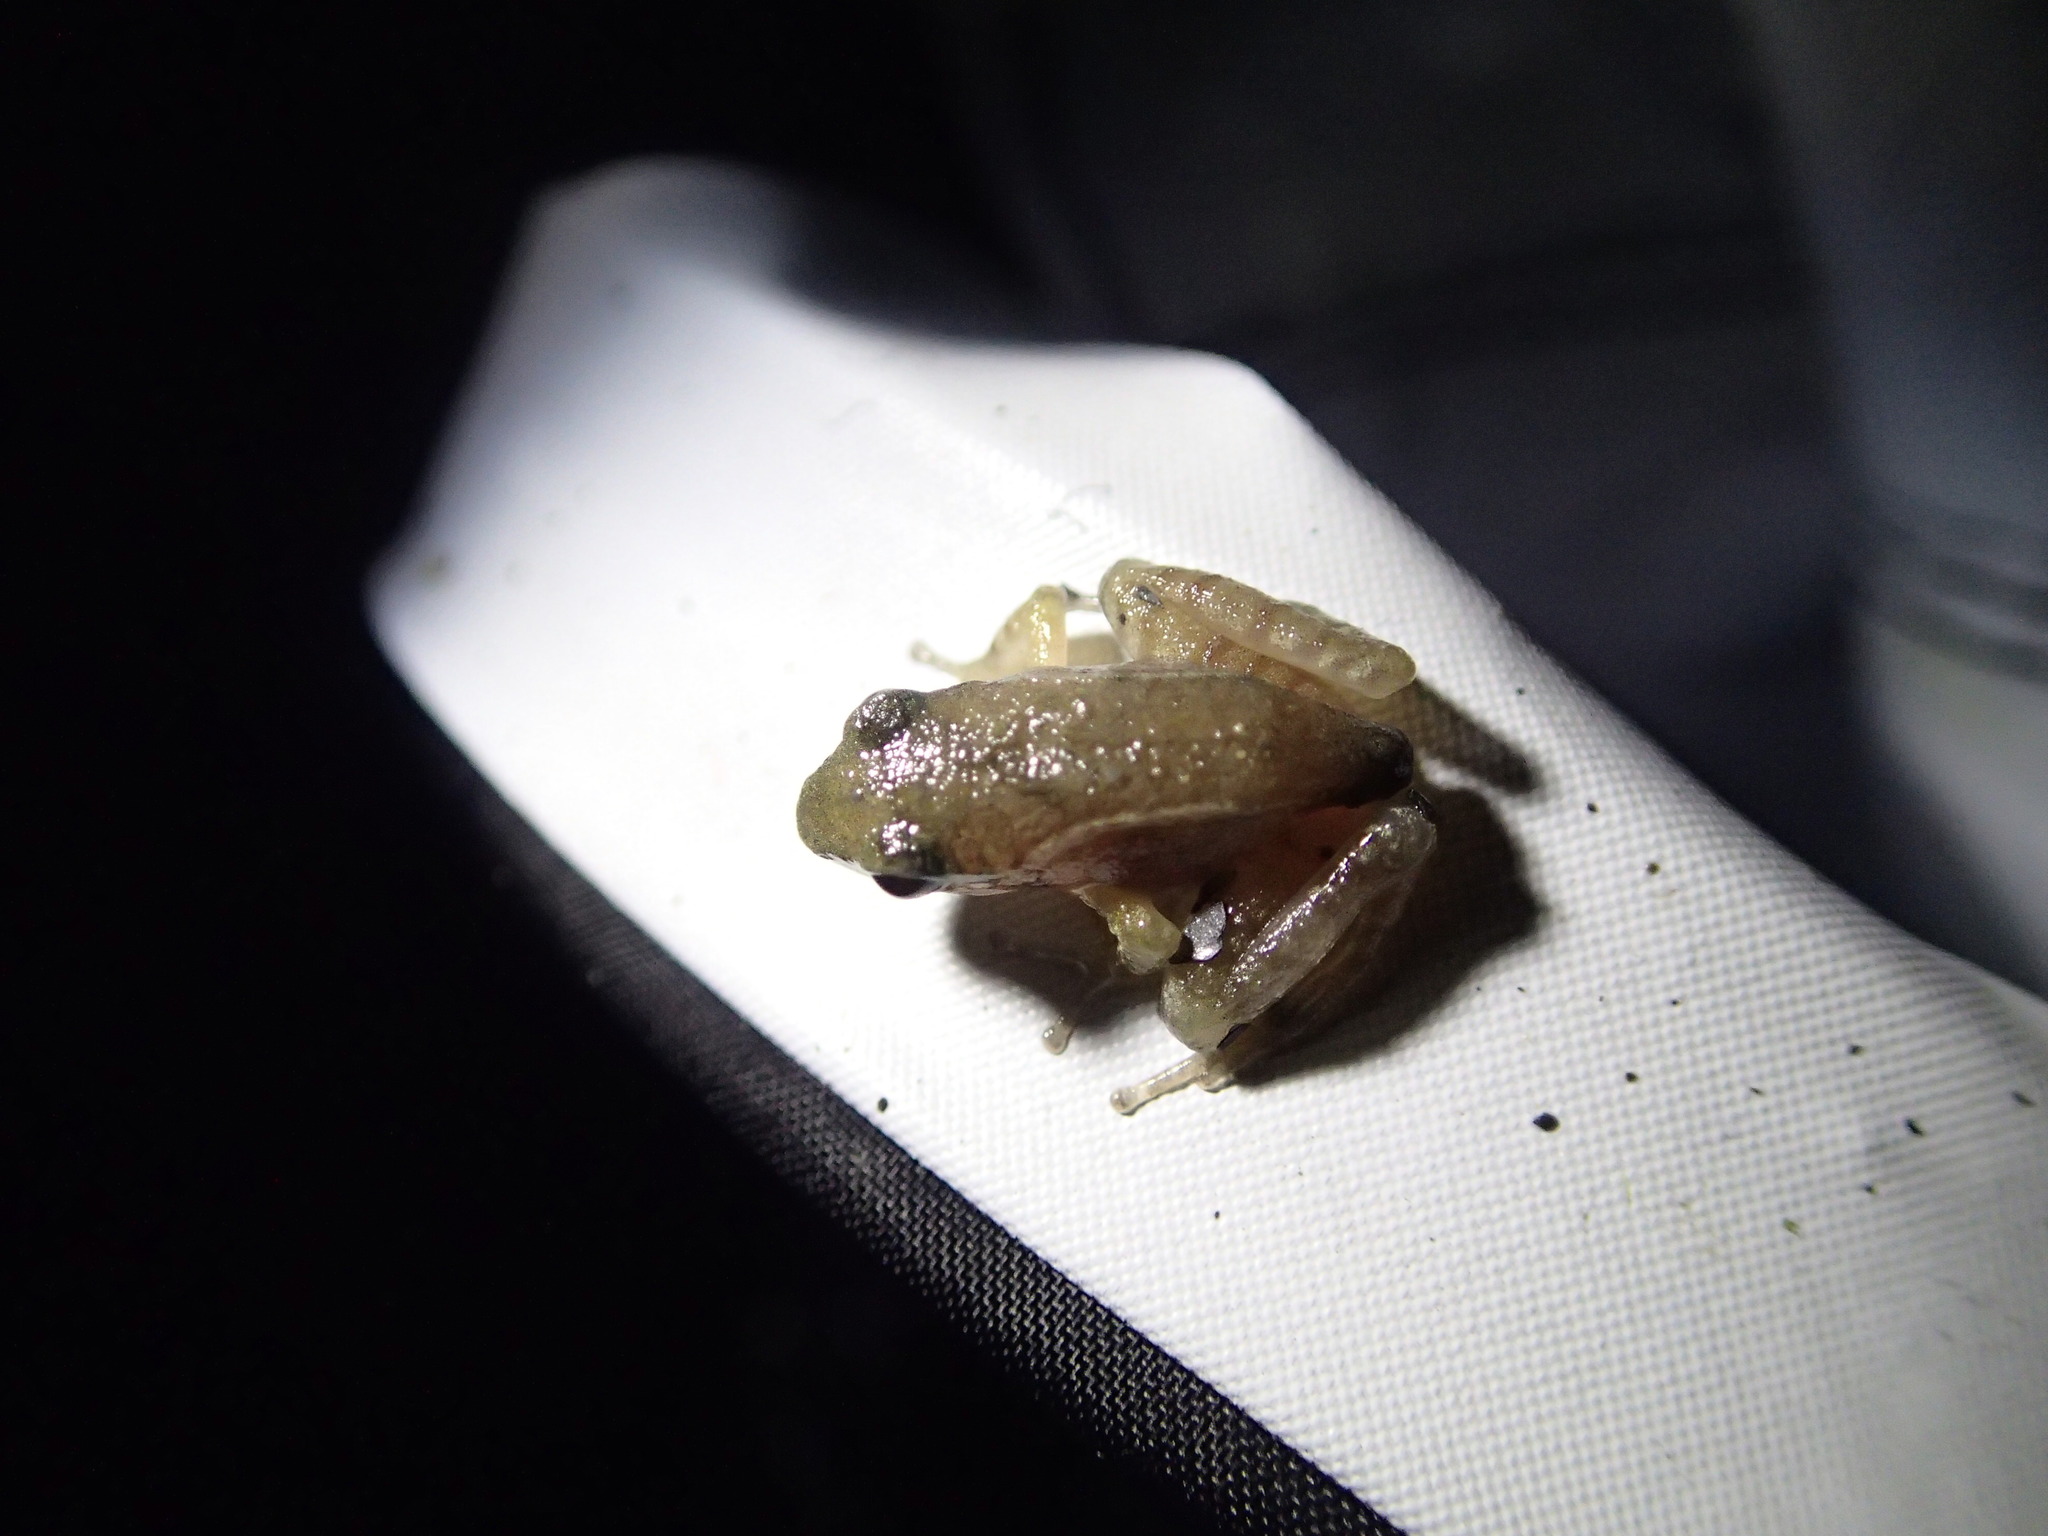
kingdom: Animalia
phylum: Chordata
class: Amphibia
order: Anura
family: Ranidae
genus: Rana
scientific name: Rana sauteri
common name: Kanshirei village frog
